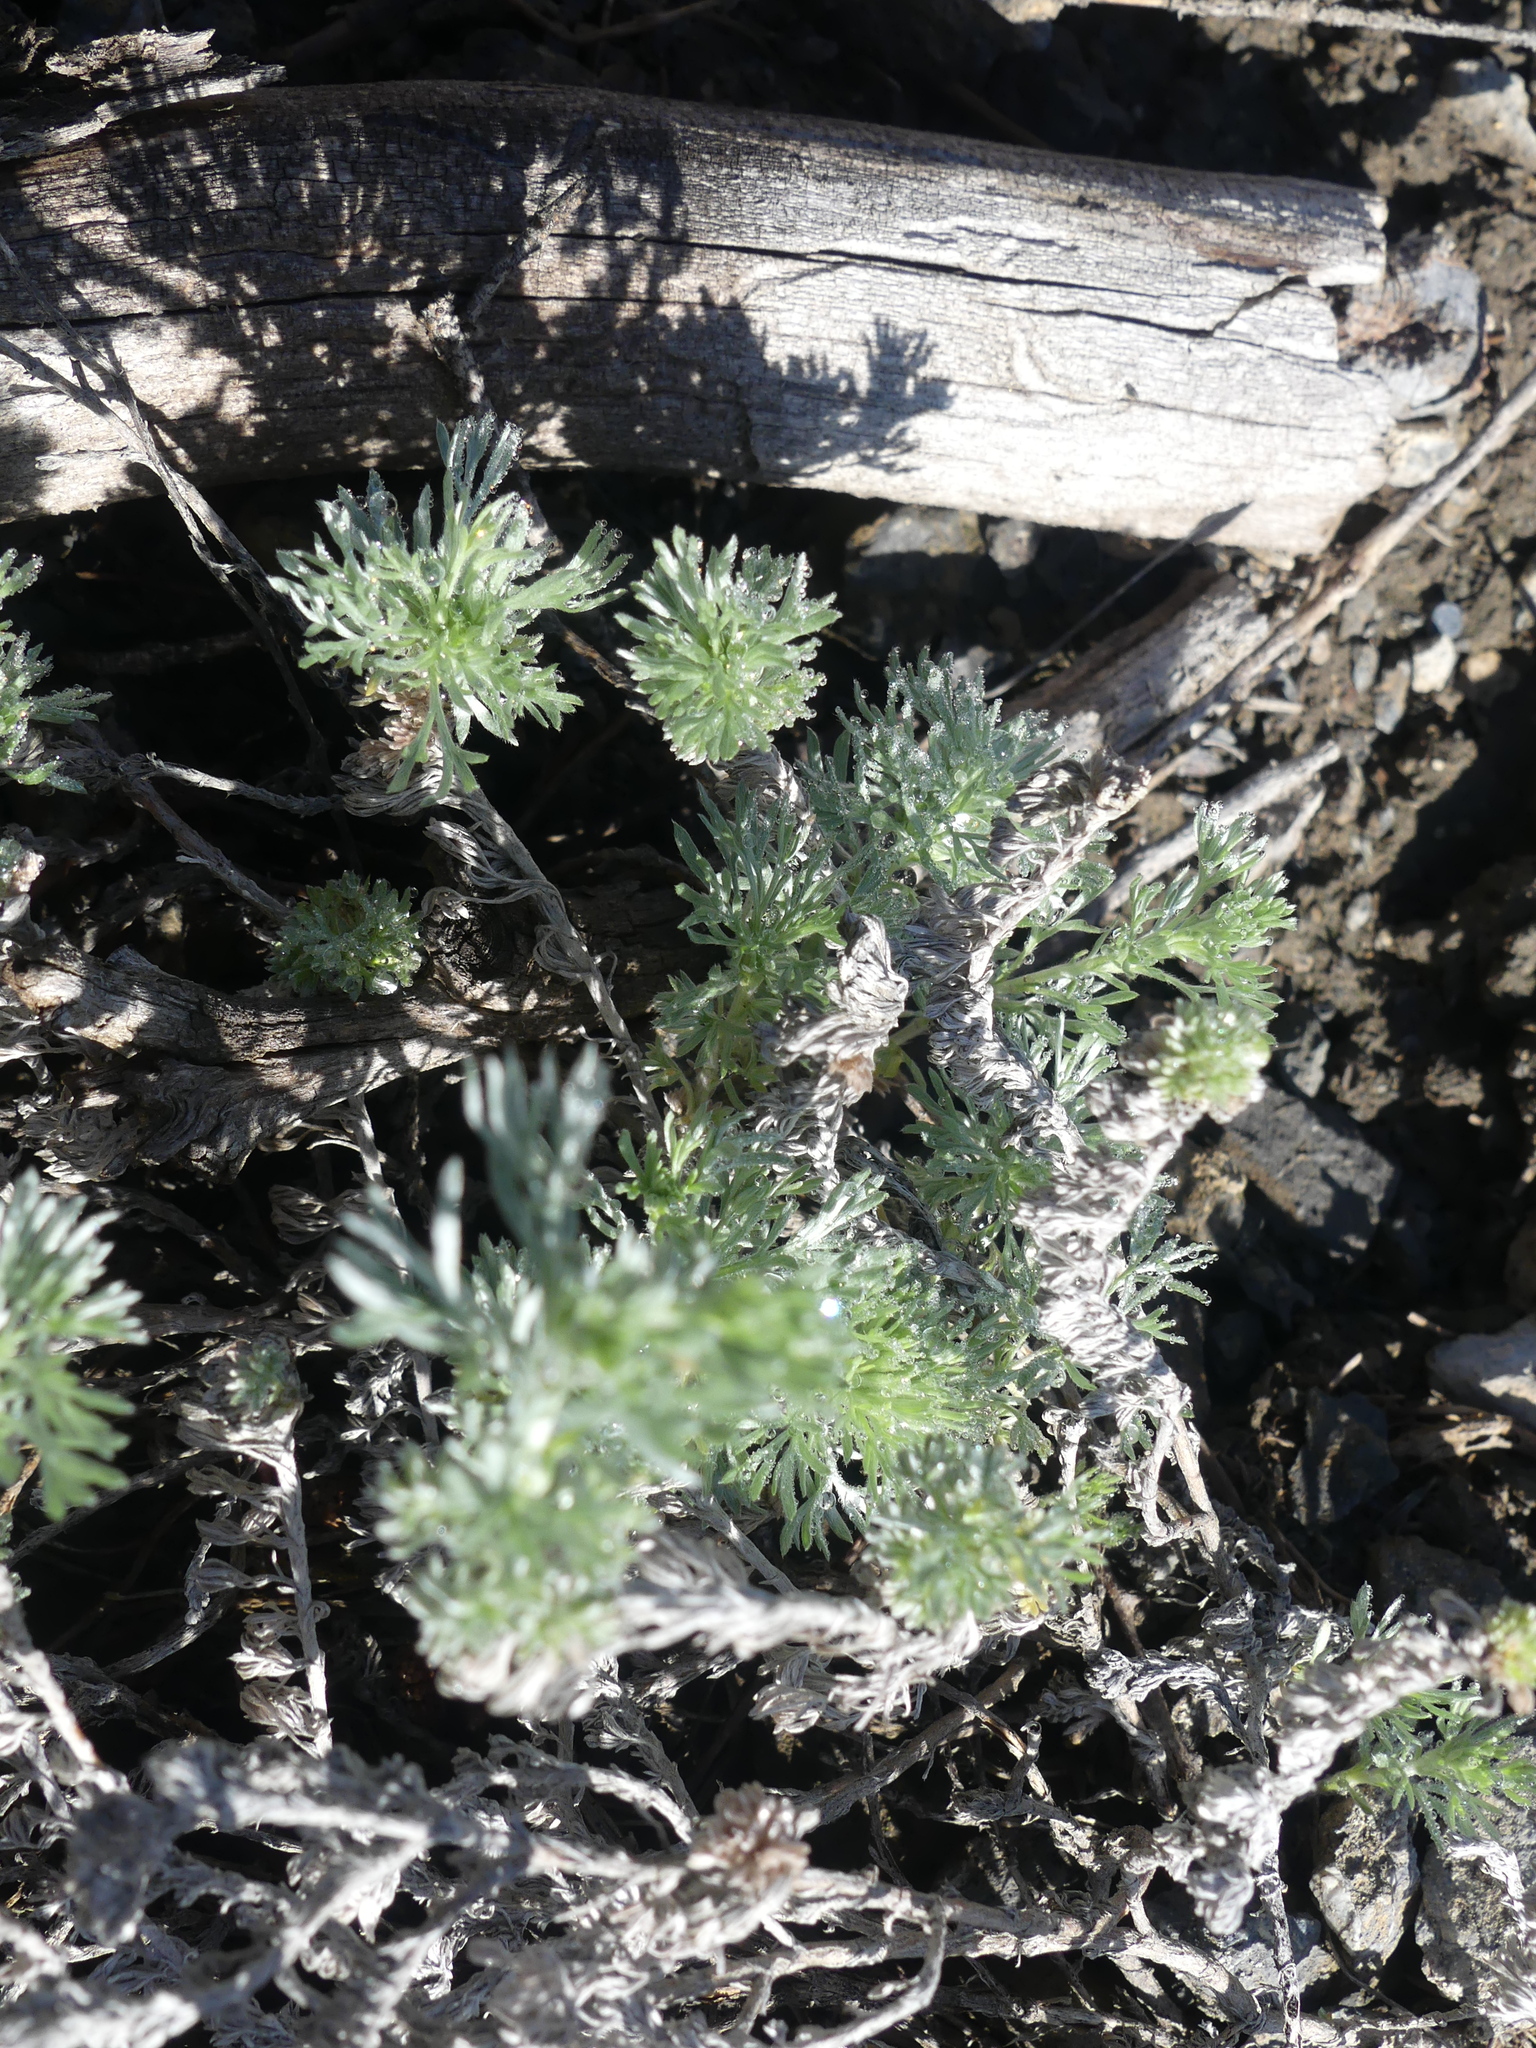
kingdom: Plantae
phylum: Tracheophyta
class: Magnoliopsida
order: Asterales
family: Asteraceae
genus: Artemisia
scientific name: Artemisia frigida
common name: Prairie sagewort
